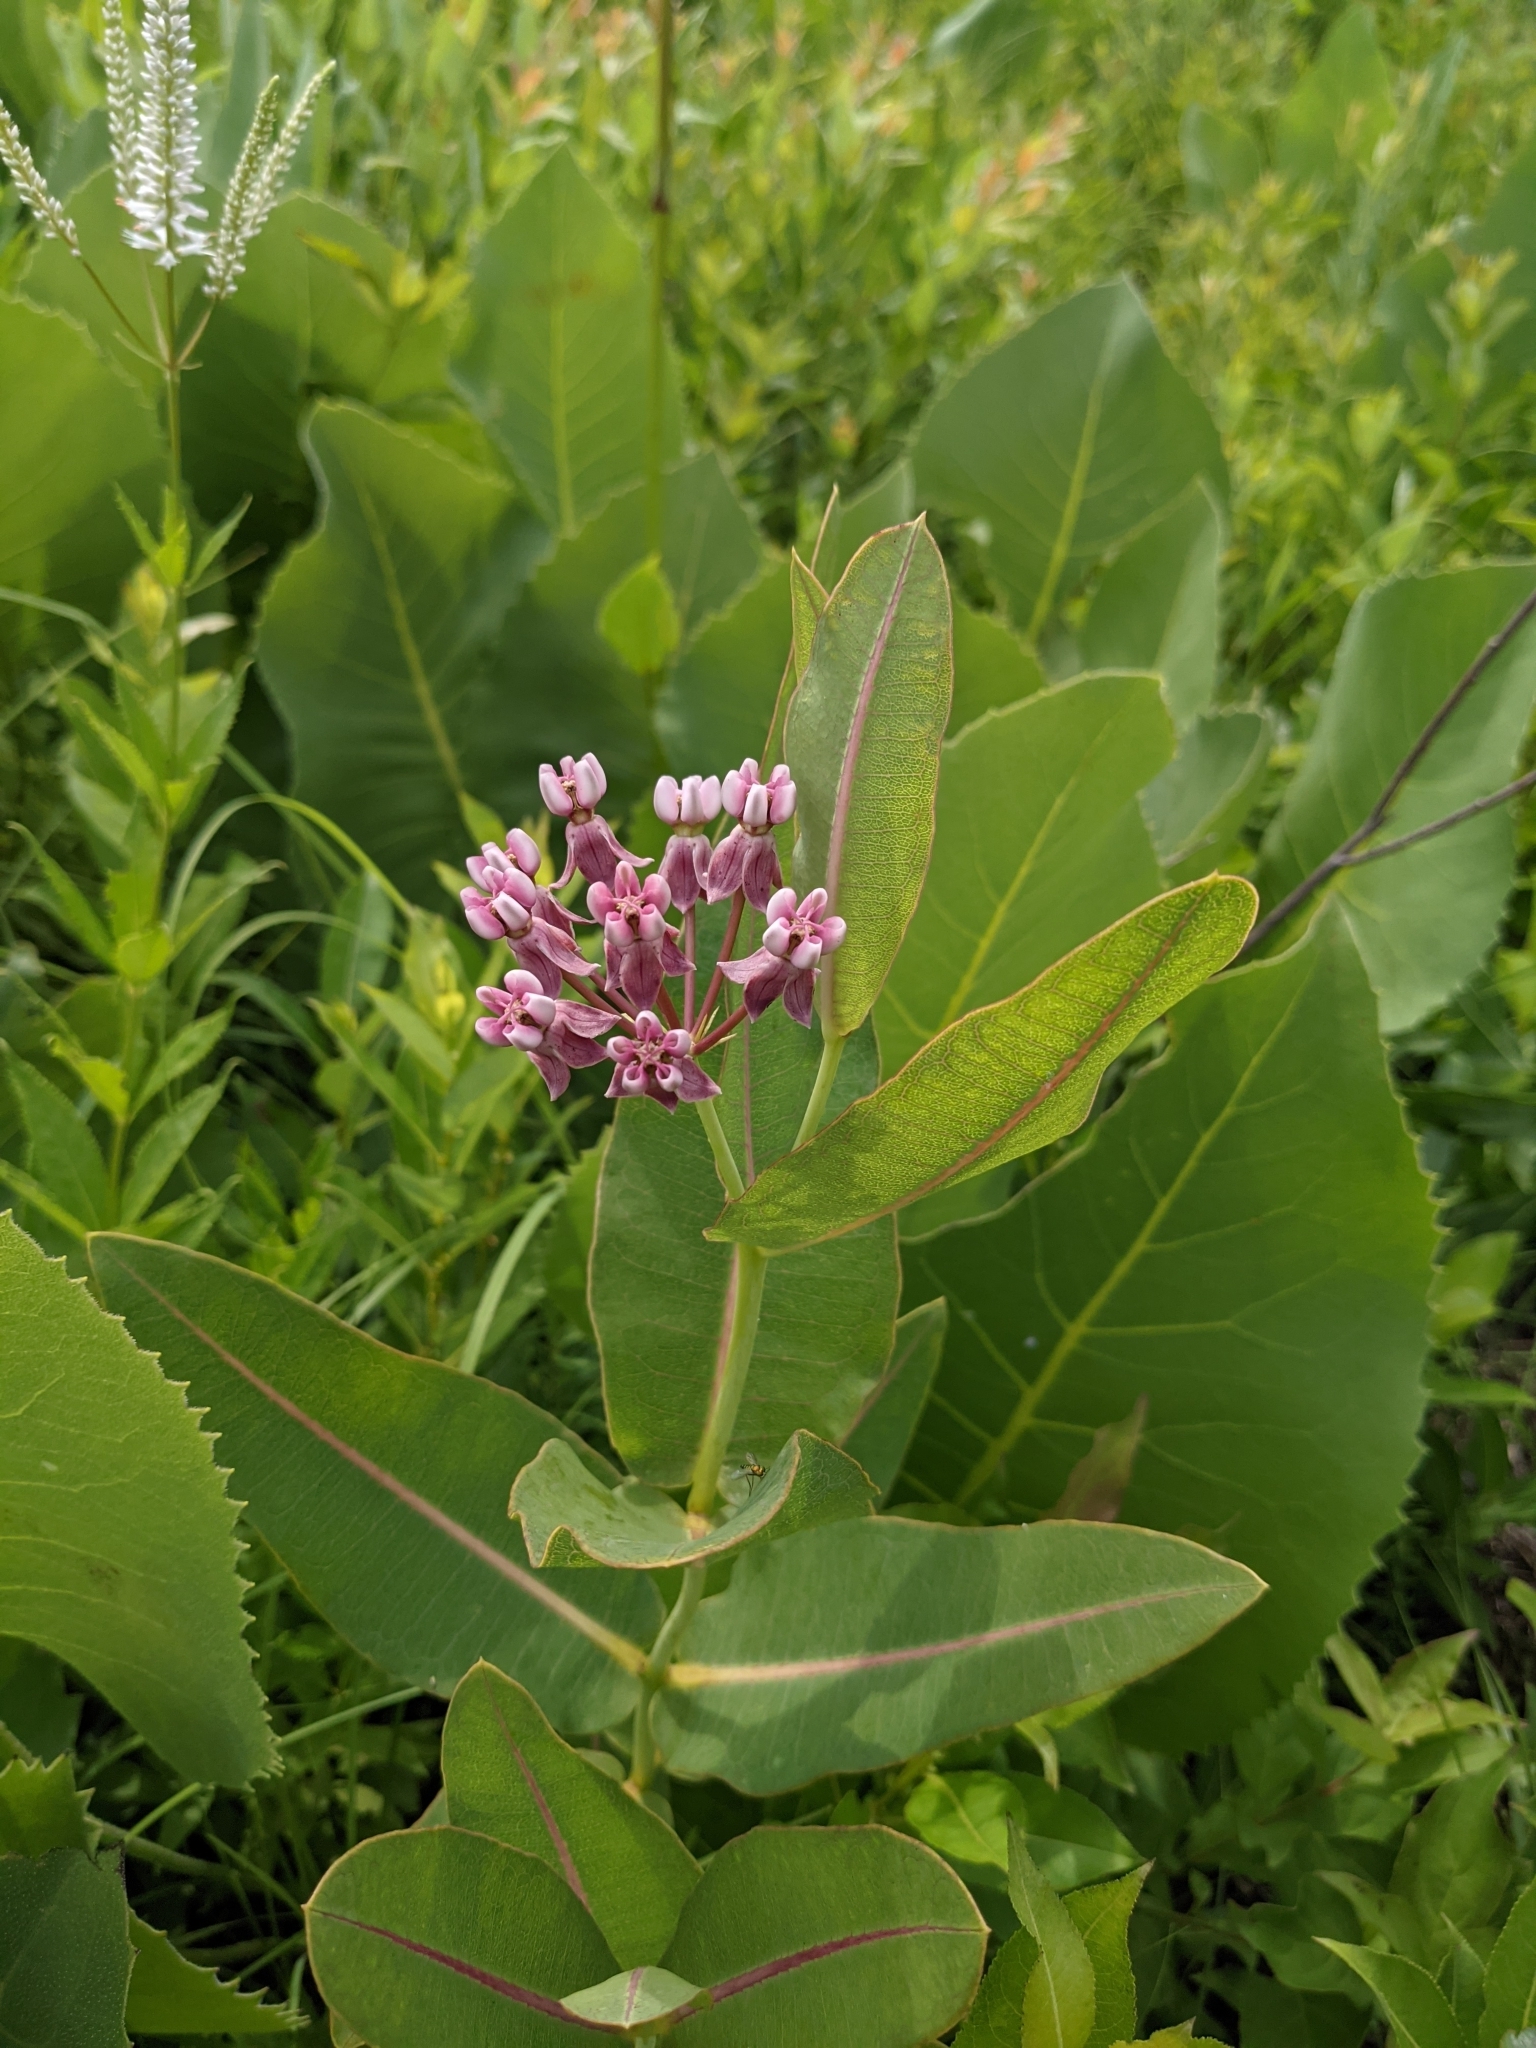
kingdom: Plantae
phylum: Tracheophyta
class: Magnoliopsida
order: Gentianales
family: Apocynaceae
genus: Asclepias
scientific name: Asclepias sullivantii
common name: Prairie milkweed
